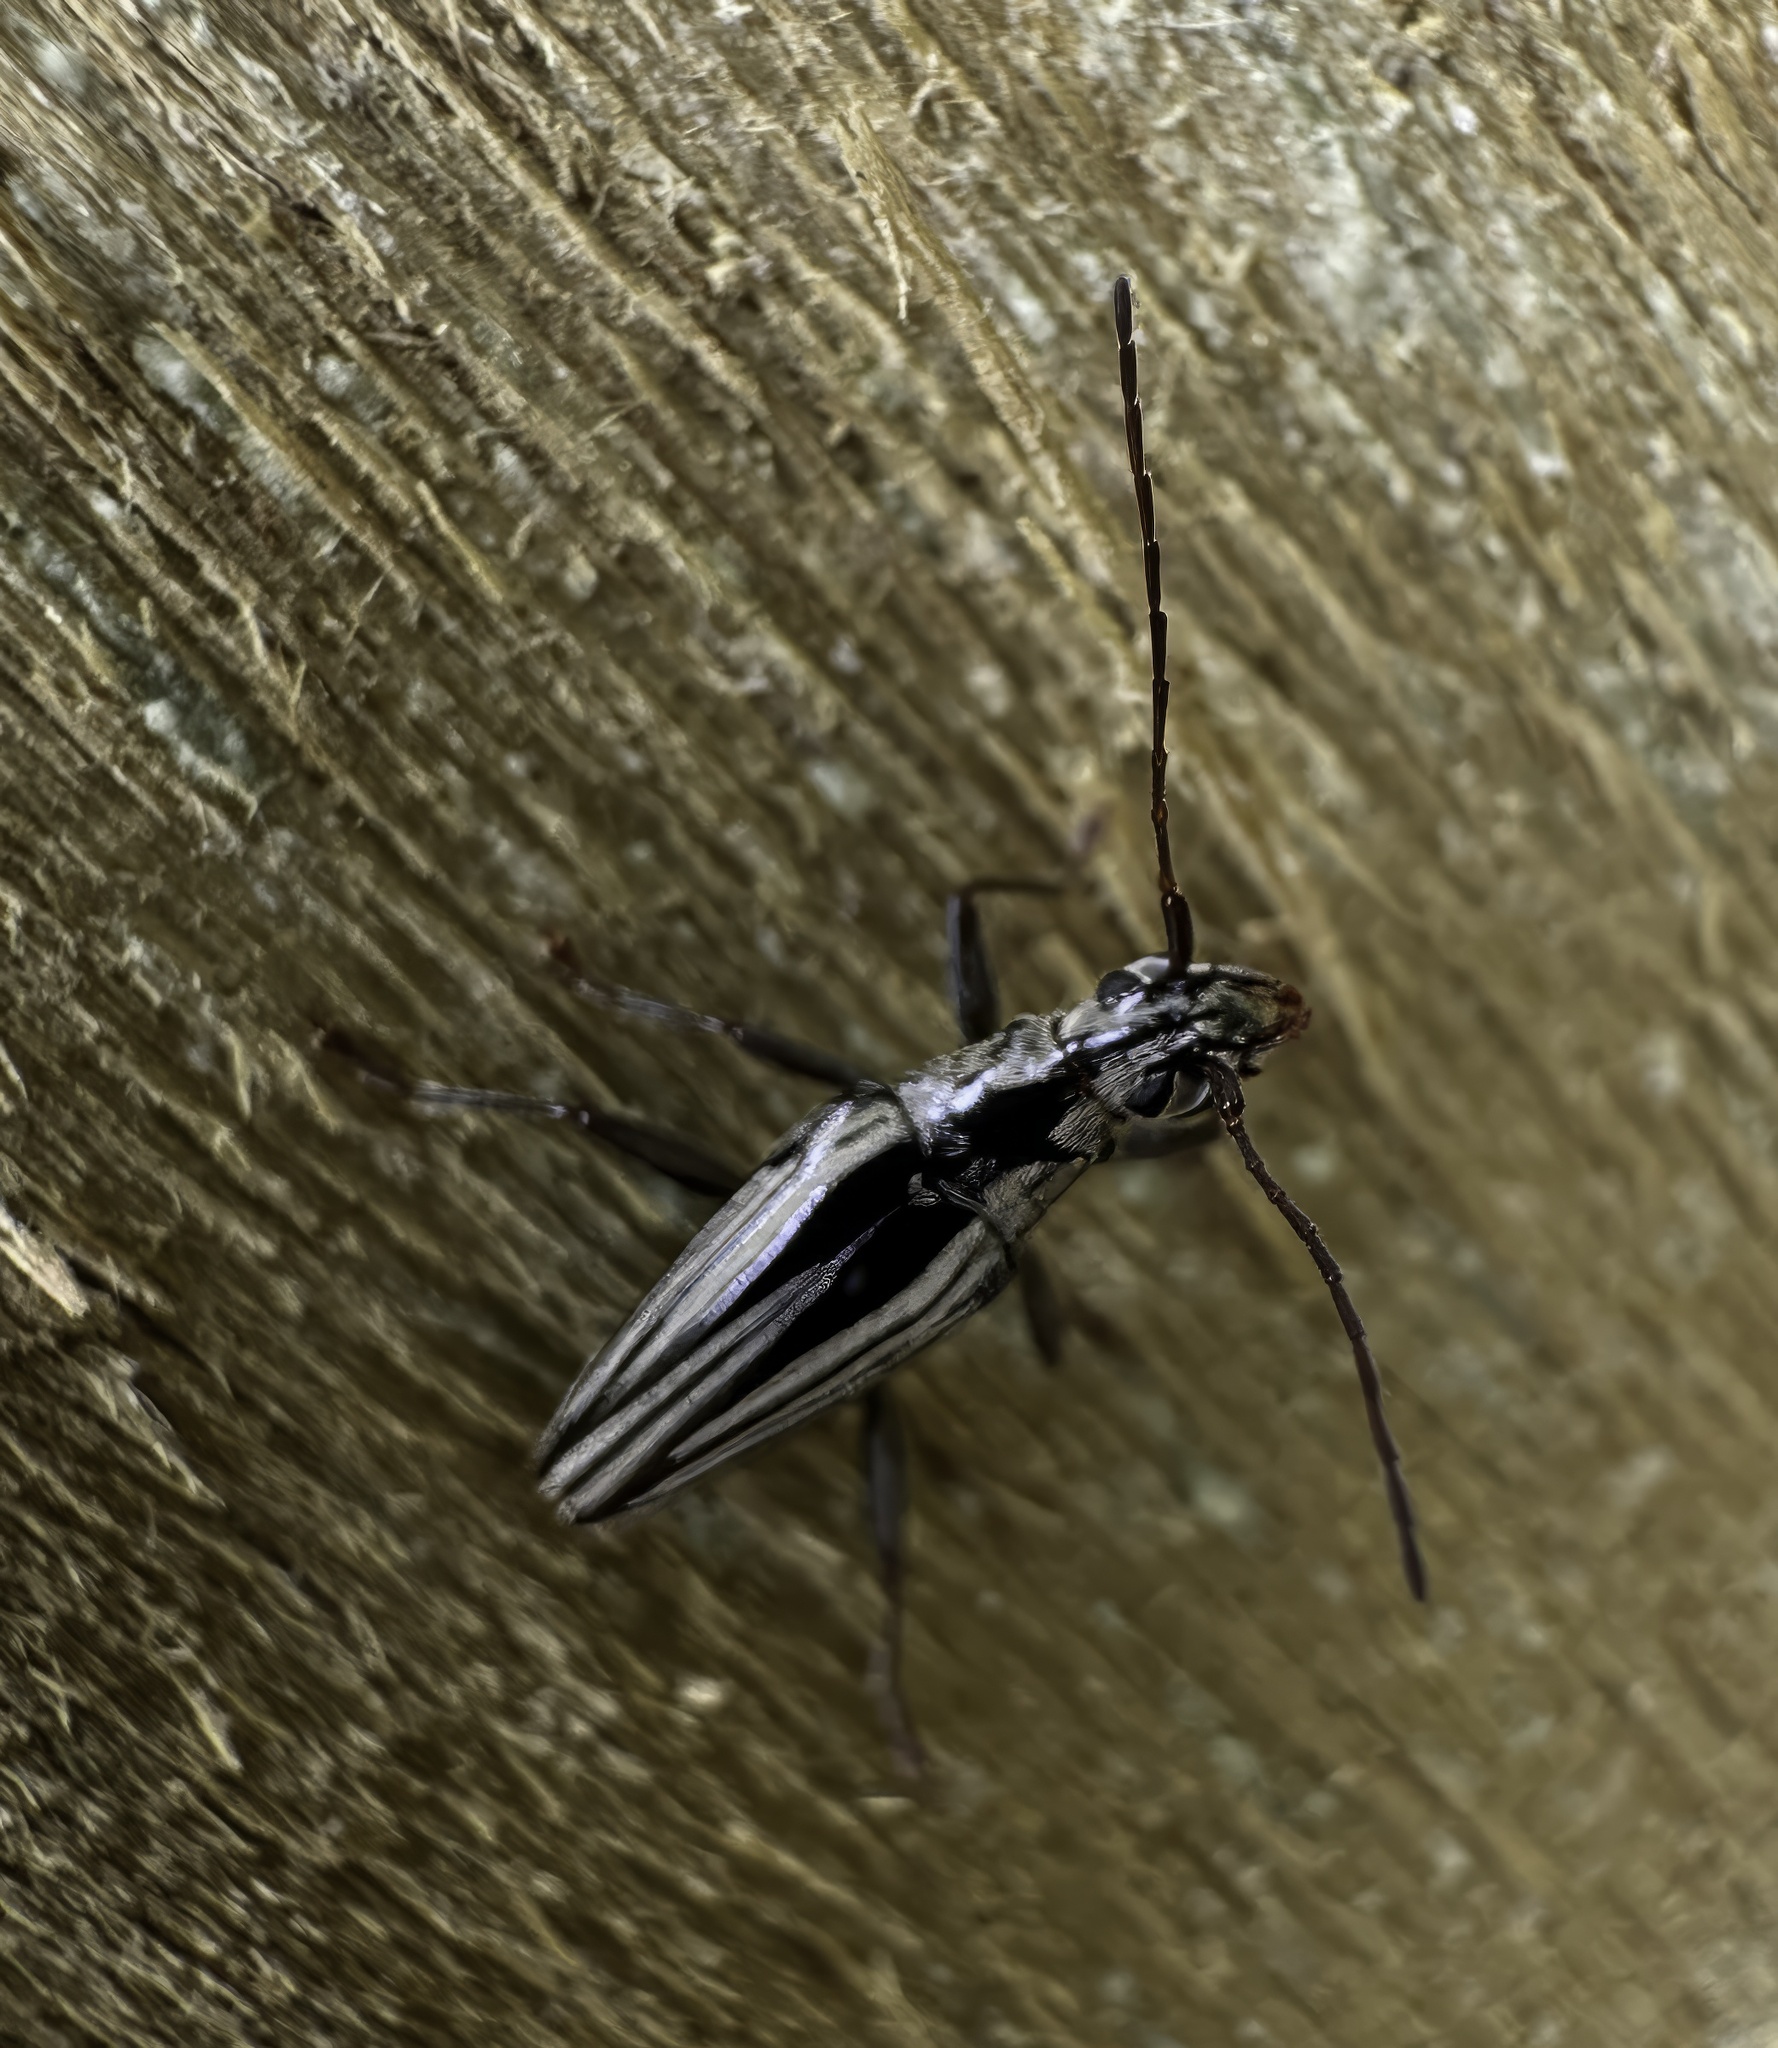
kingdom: Animalia
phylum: Arthropoda
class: Insecta
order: Coleoptera
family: Cerambycidae
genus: Coptomma
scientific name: Coptomma sulcatum
